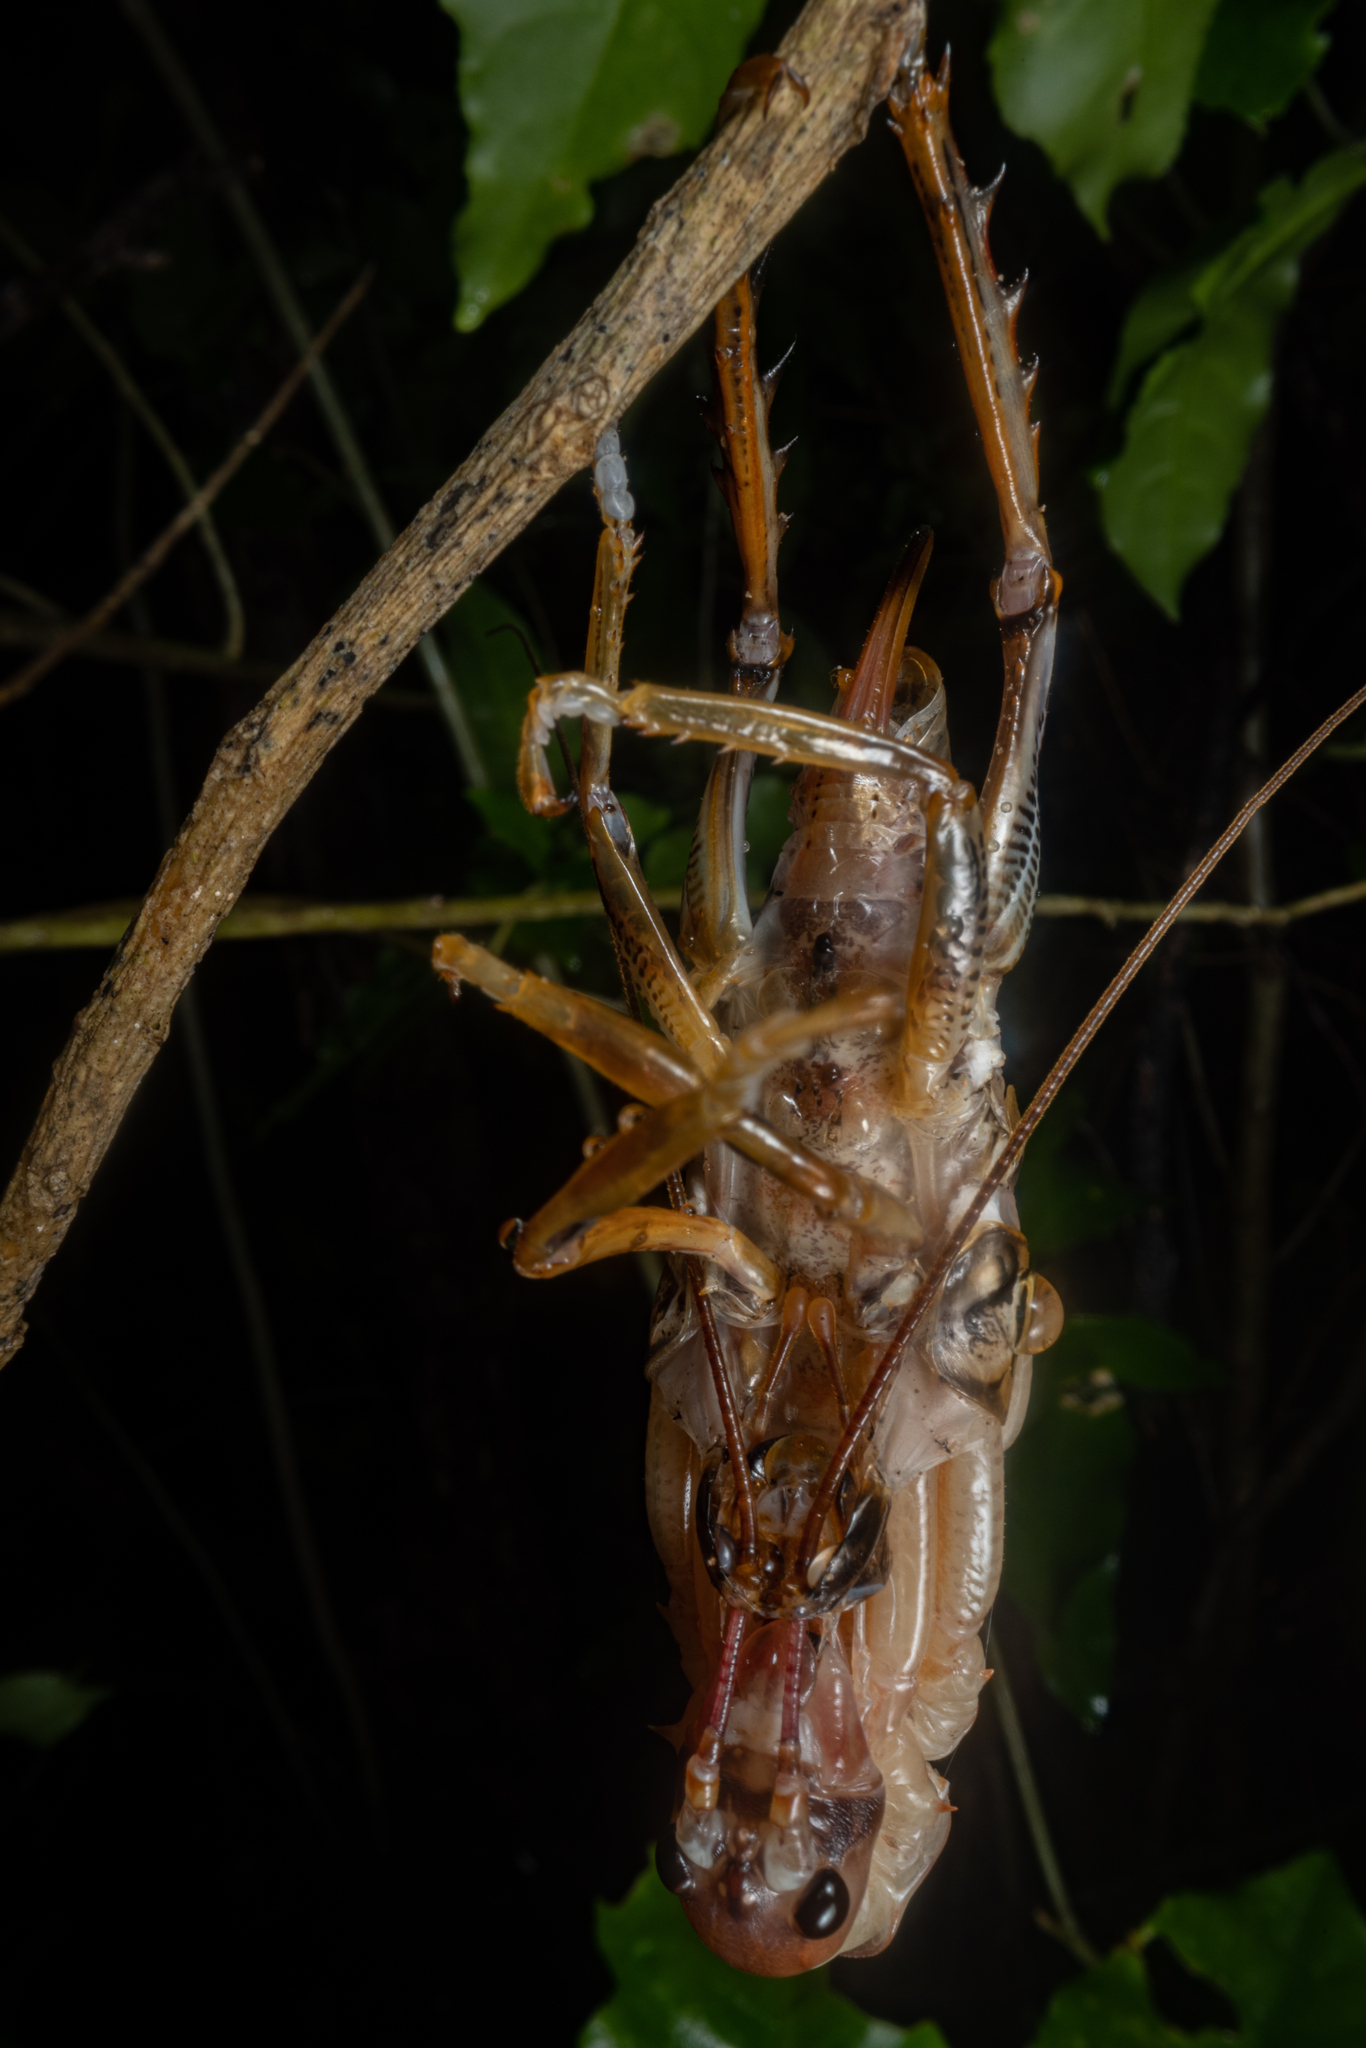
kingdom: Animalia
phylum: Arthropoda
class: Insecta
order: Orthoptera
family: Anostostomatidae
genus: Hemideina
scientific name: Hemideina thoracica
